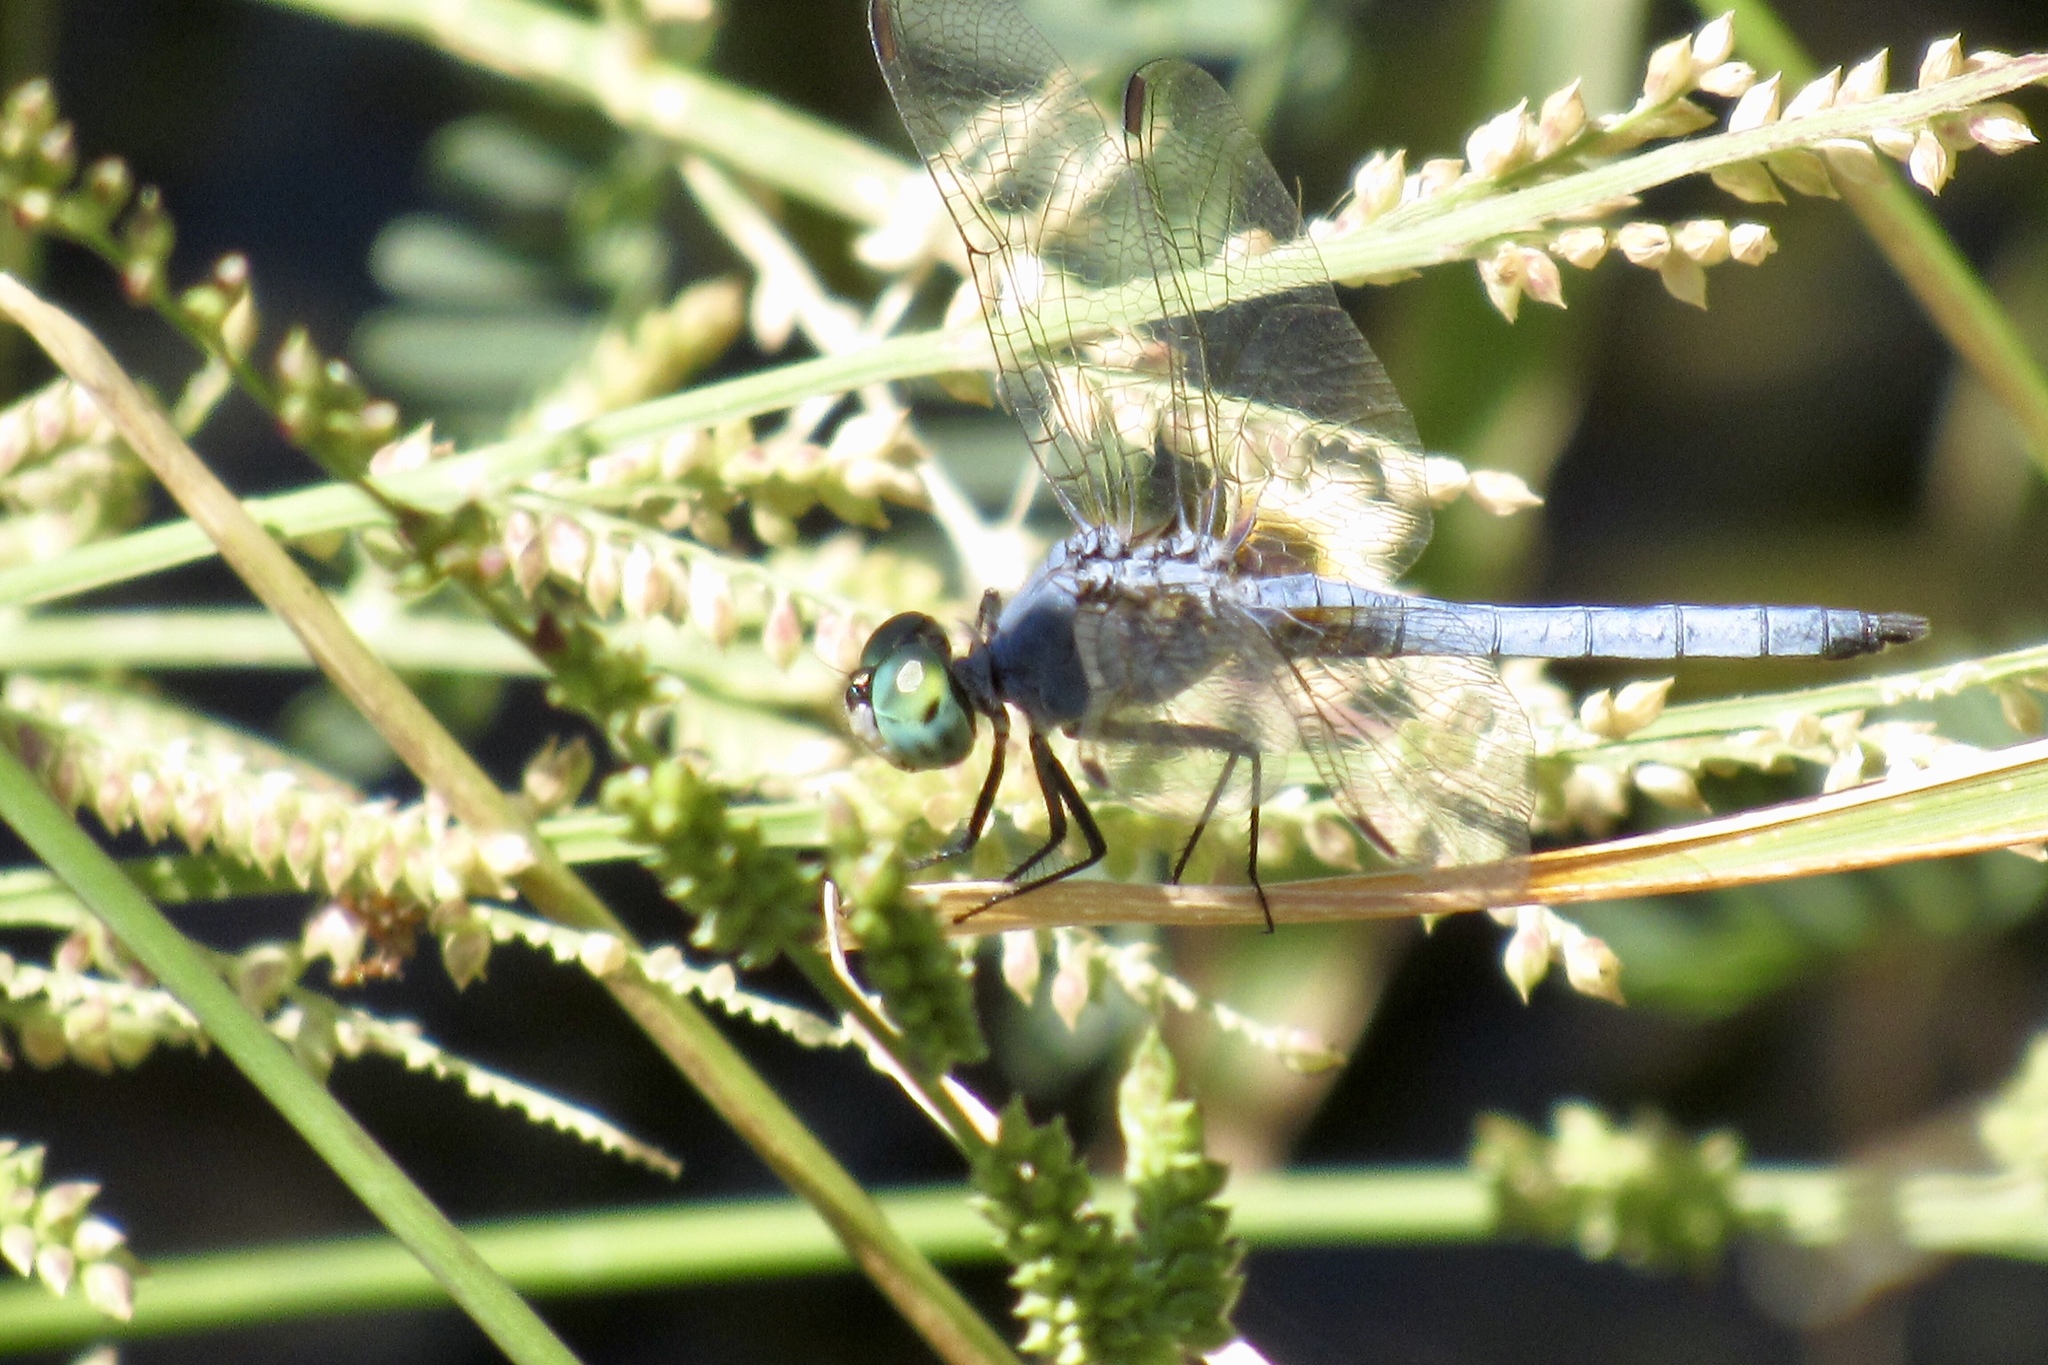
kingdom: Animalia
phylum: Arthropoda
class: Insecta
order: Odonata
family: Libellulidae
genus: Pachydiplax
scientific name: Pachydiplax longipennis
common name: Blue dasher
